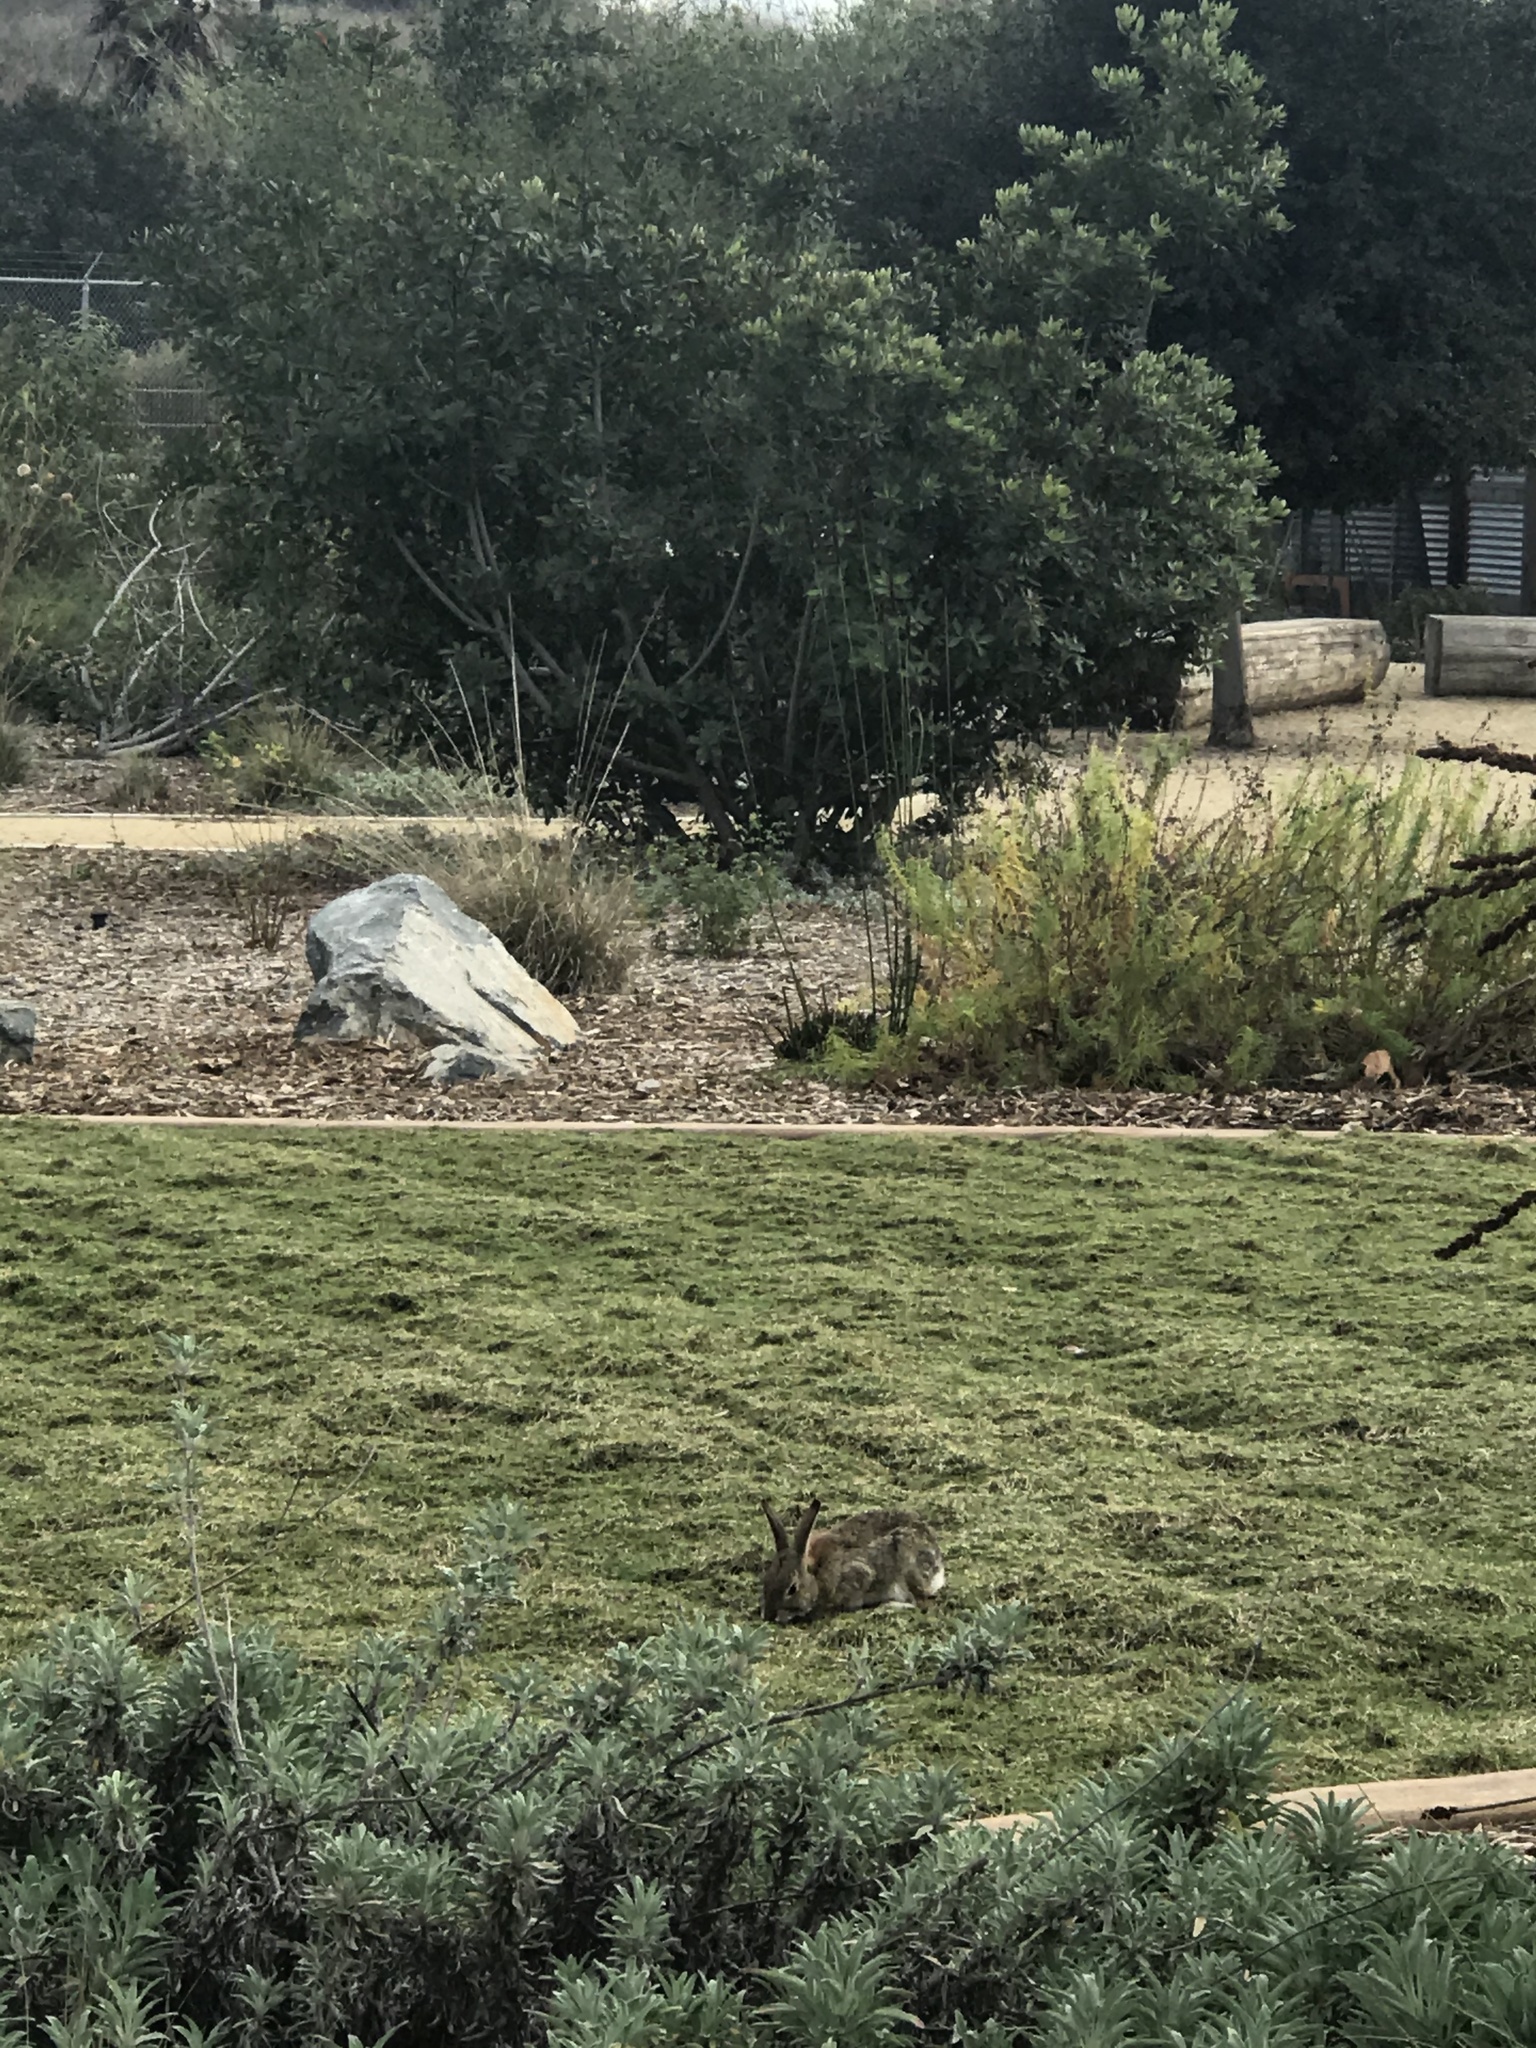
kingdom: Animalia
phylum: Chordata
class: Mammalia
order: Lagomorpha
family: Leporidae
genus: Sylvilagus
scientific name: Sylvilagus audubonii
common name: Desert cottontail
